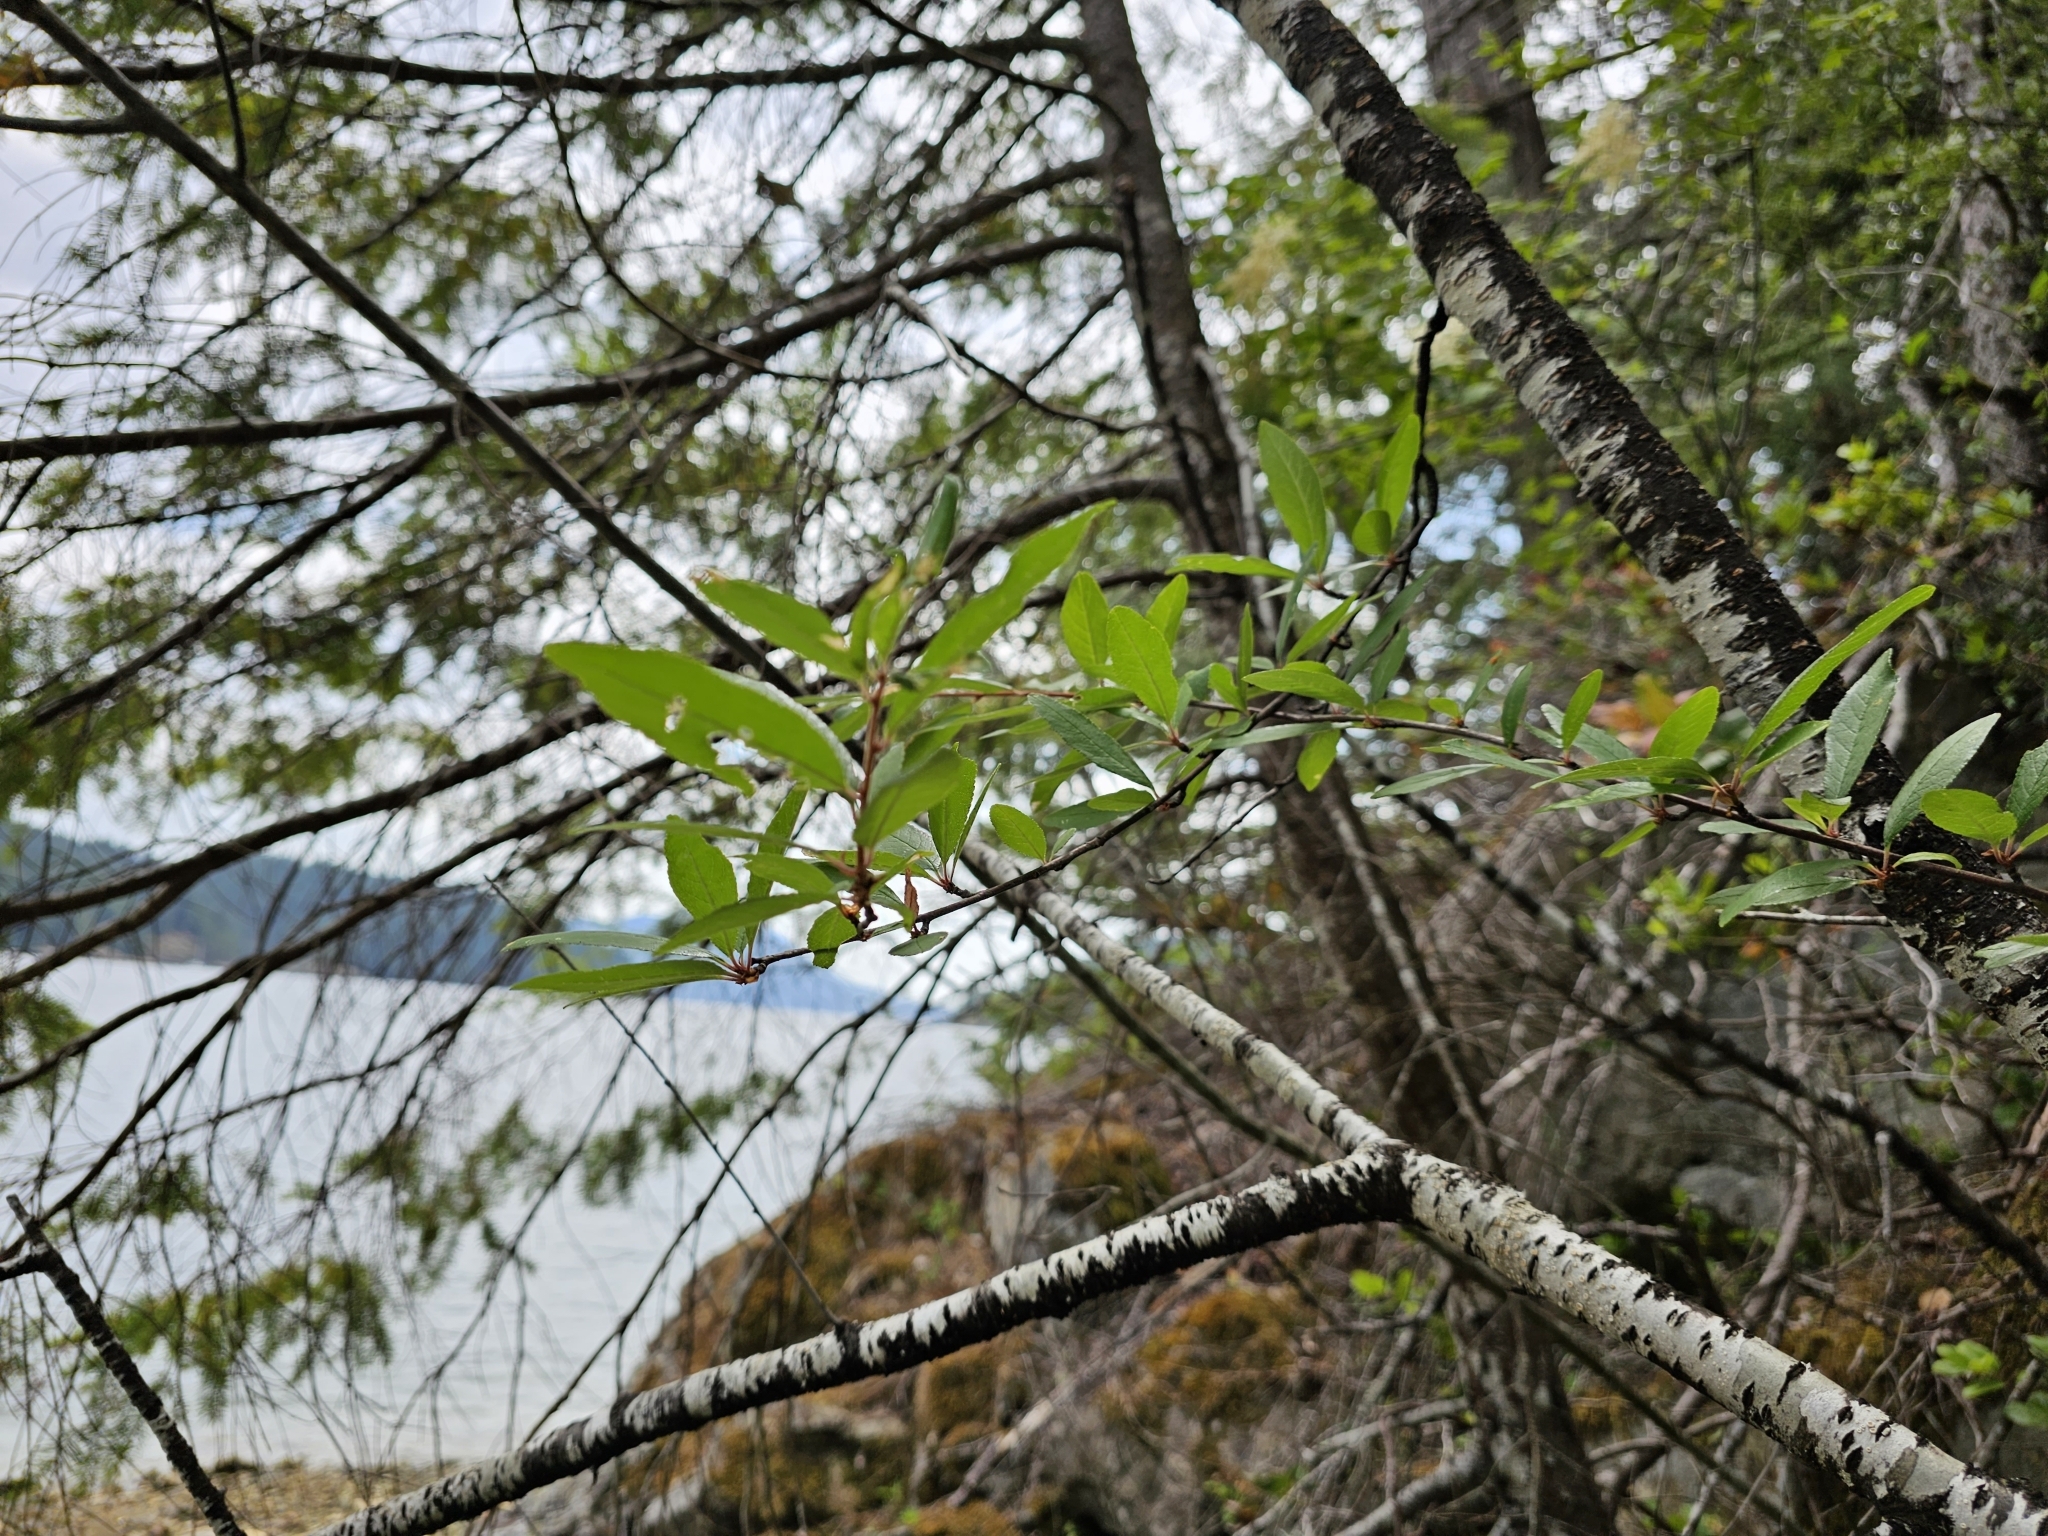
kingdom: Plantae
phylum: Tracheophyta
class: Magnoliopsida
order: Rosales
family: Rosaceae
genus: Prunus
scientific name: Prunus emarginata
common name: Bitter cherry
